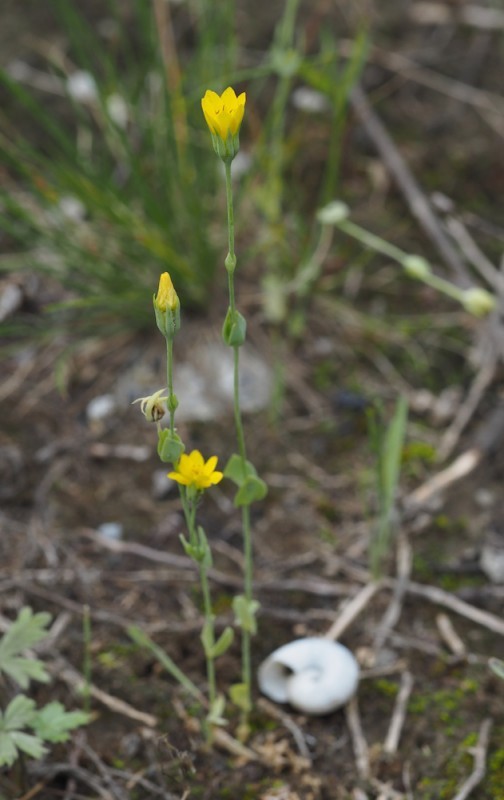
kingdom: Plantae
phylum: Tracheophyta
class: Magnoliopsida
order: Gentianales
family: Gentianaceae
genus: Blackstonia
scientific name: Blackstonia acuminata
